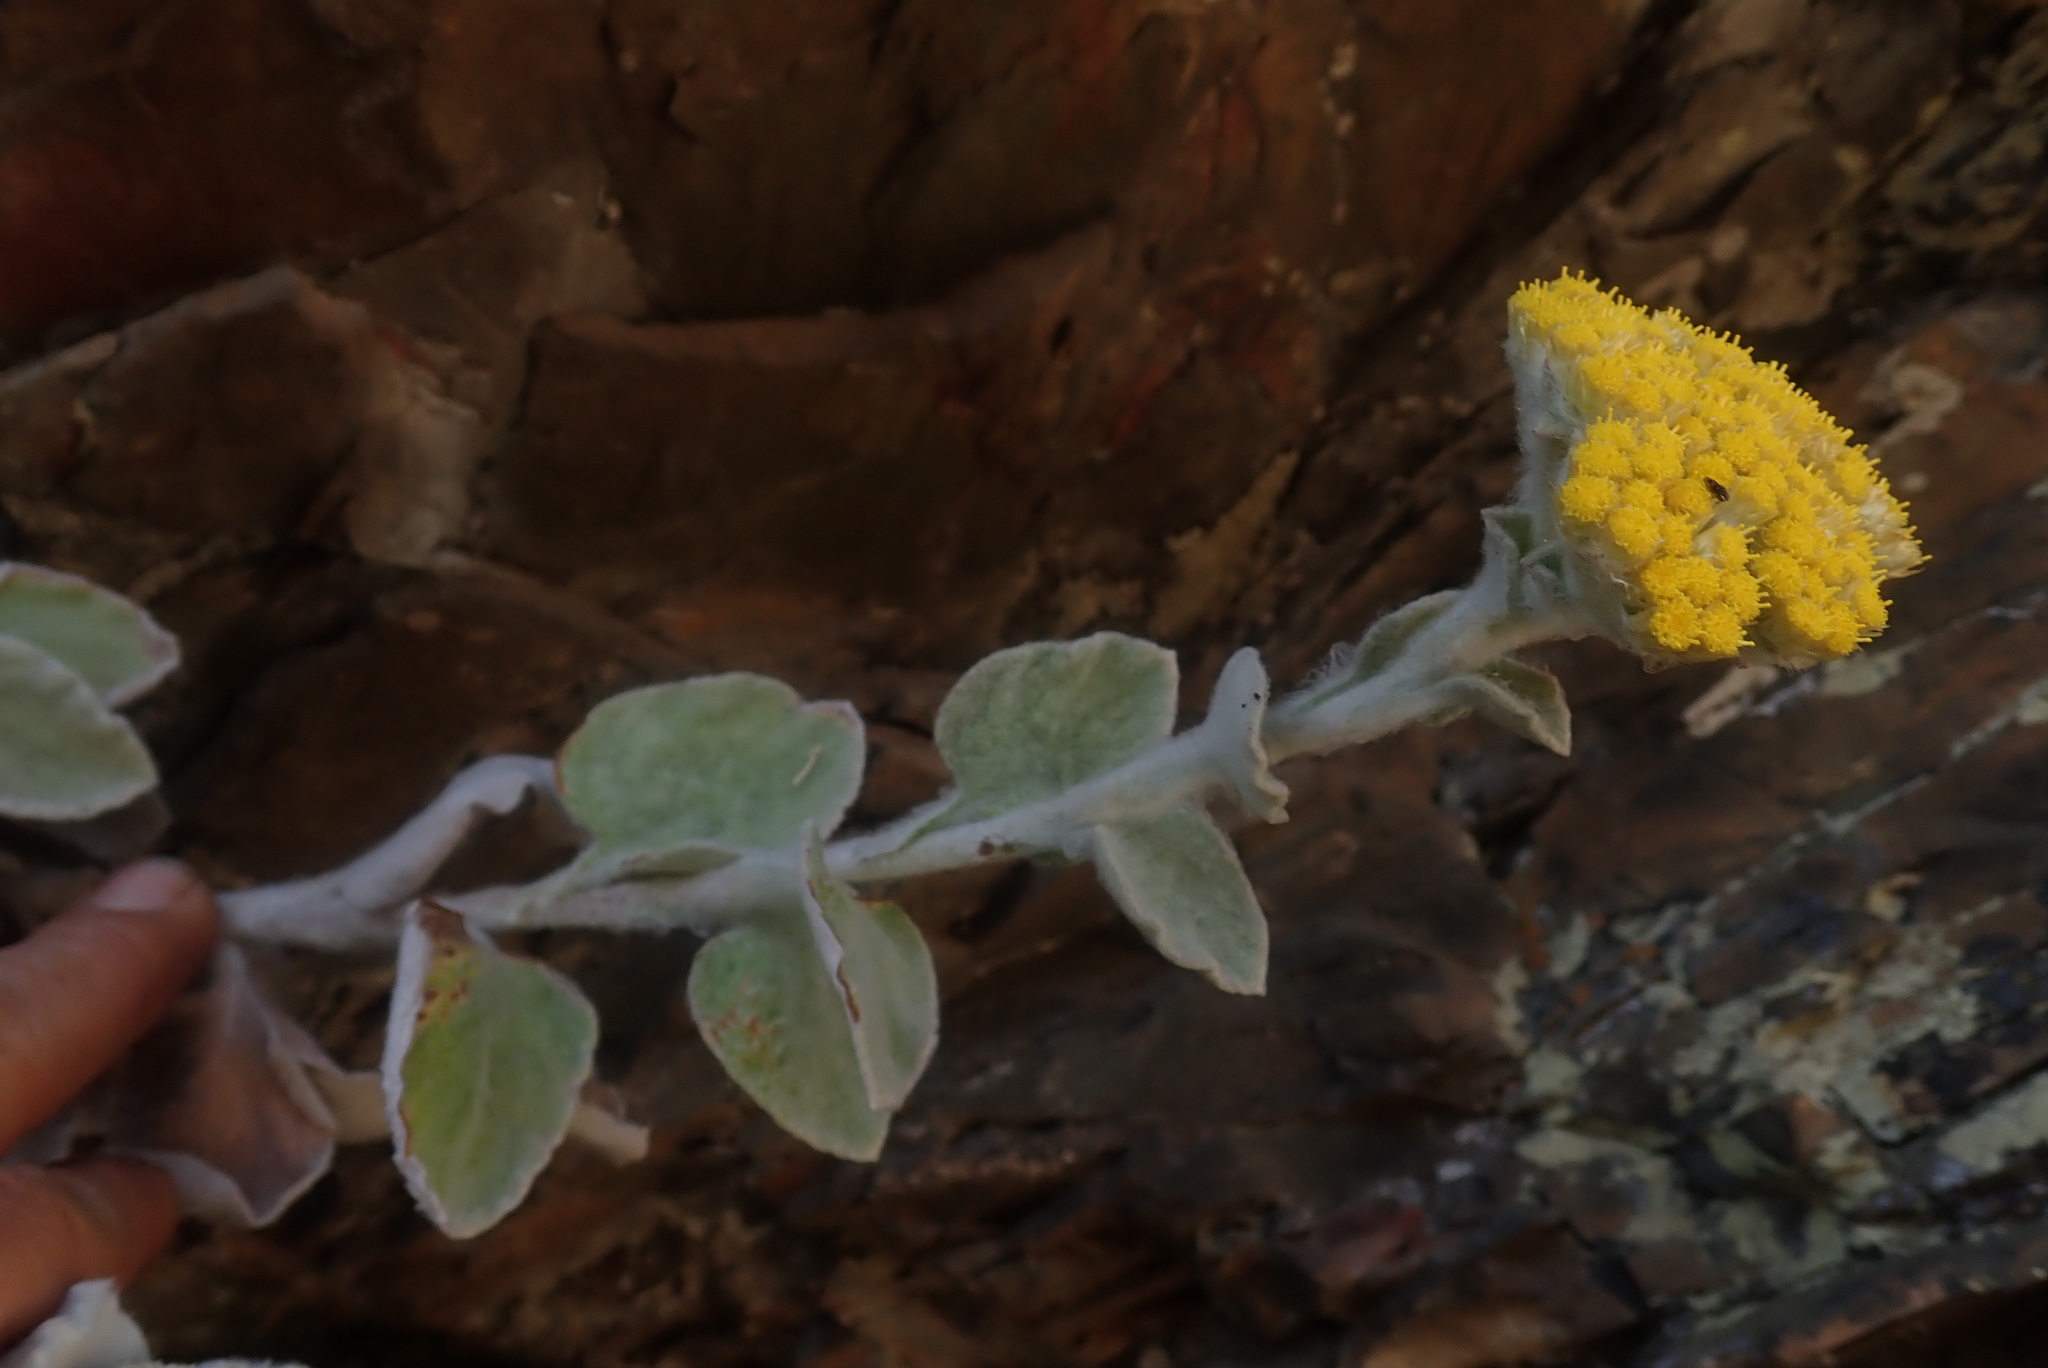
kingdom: Plantae
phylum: Tracheophyta
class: Magnoliopsida
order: Asterales
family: Asteraceae
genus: Helichrysum
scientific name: Helichrysum homilochrysum
